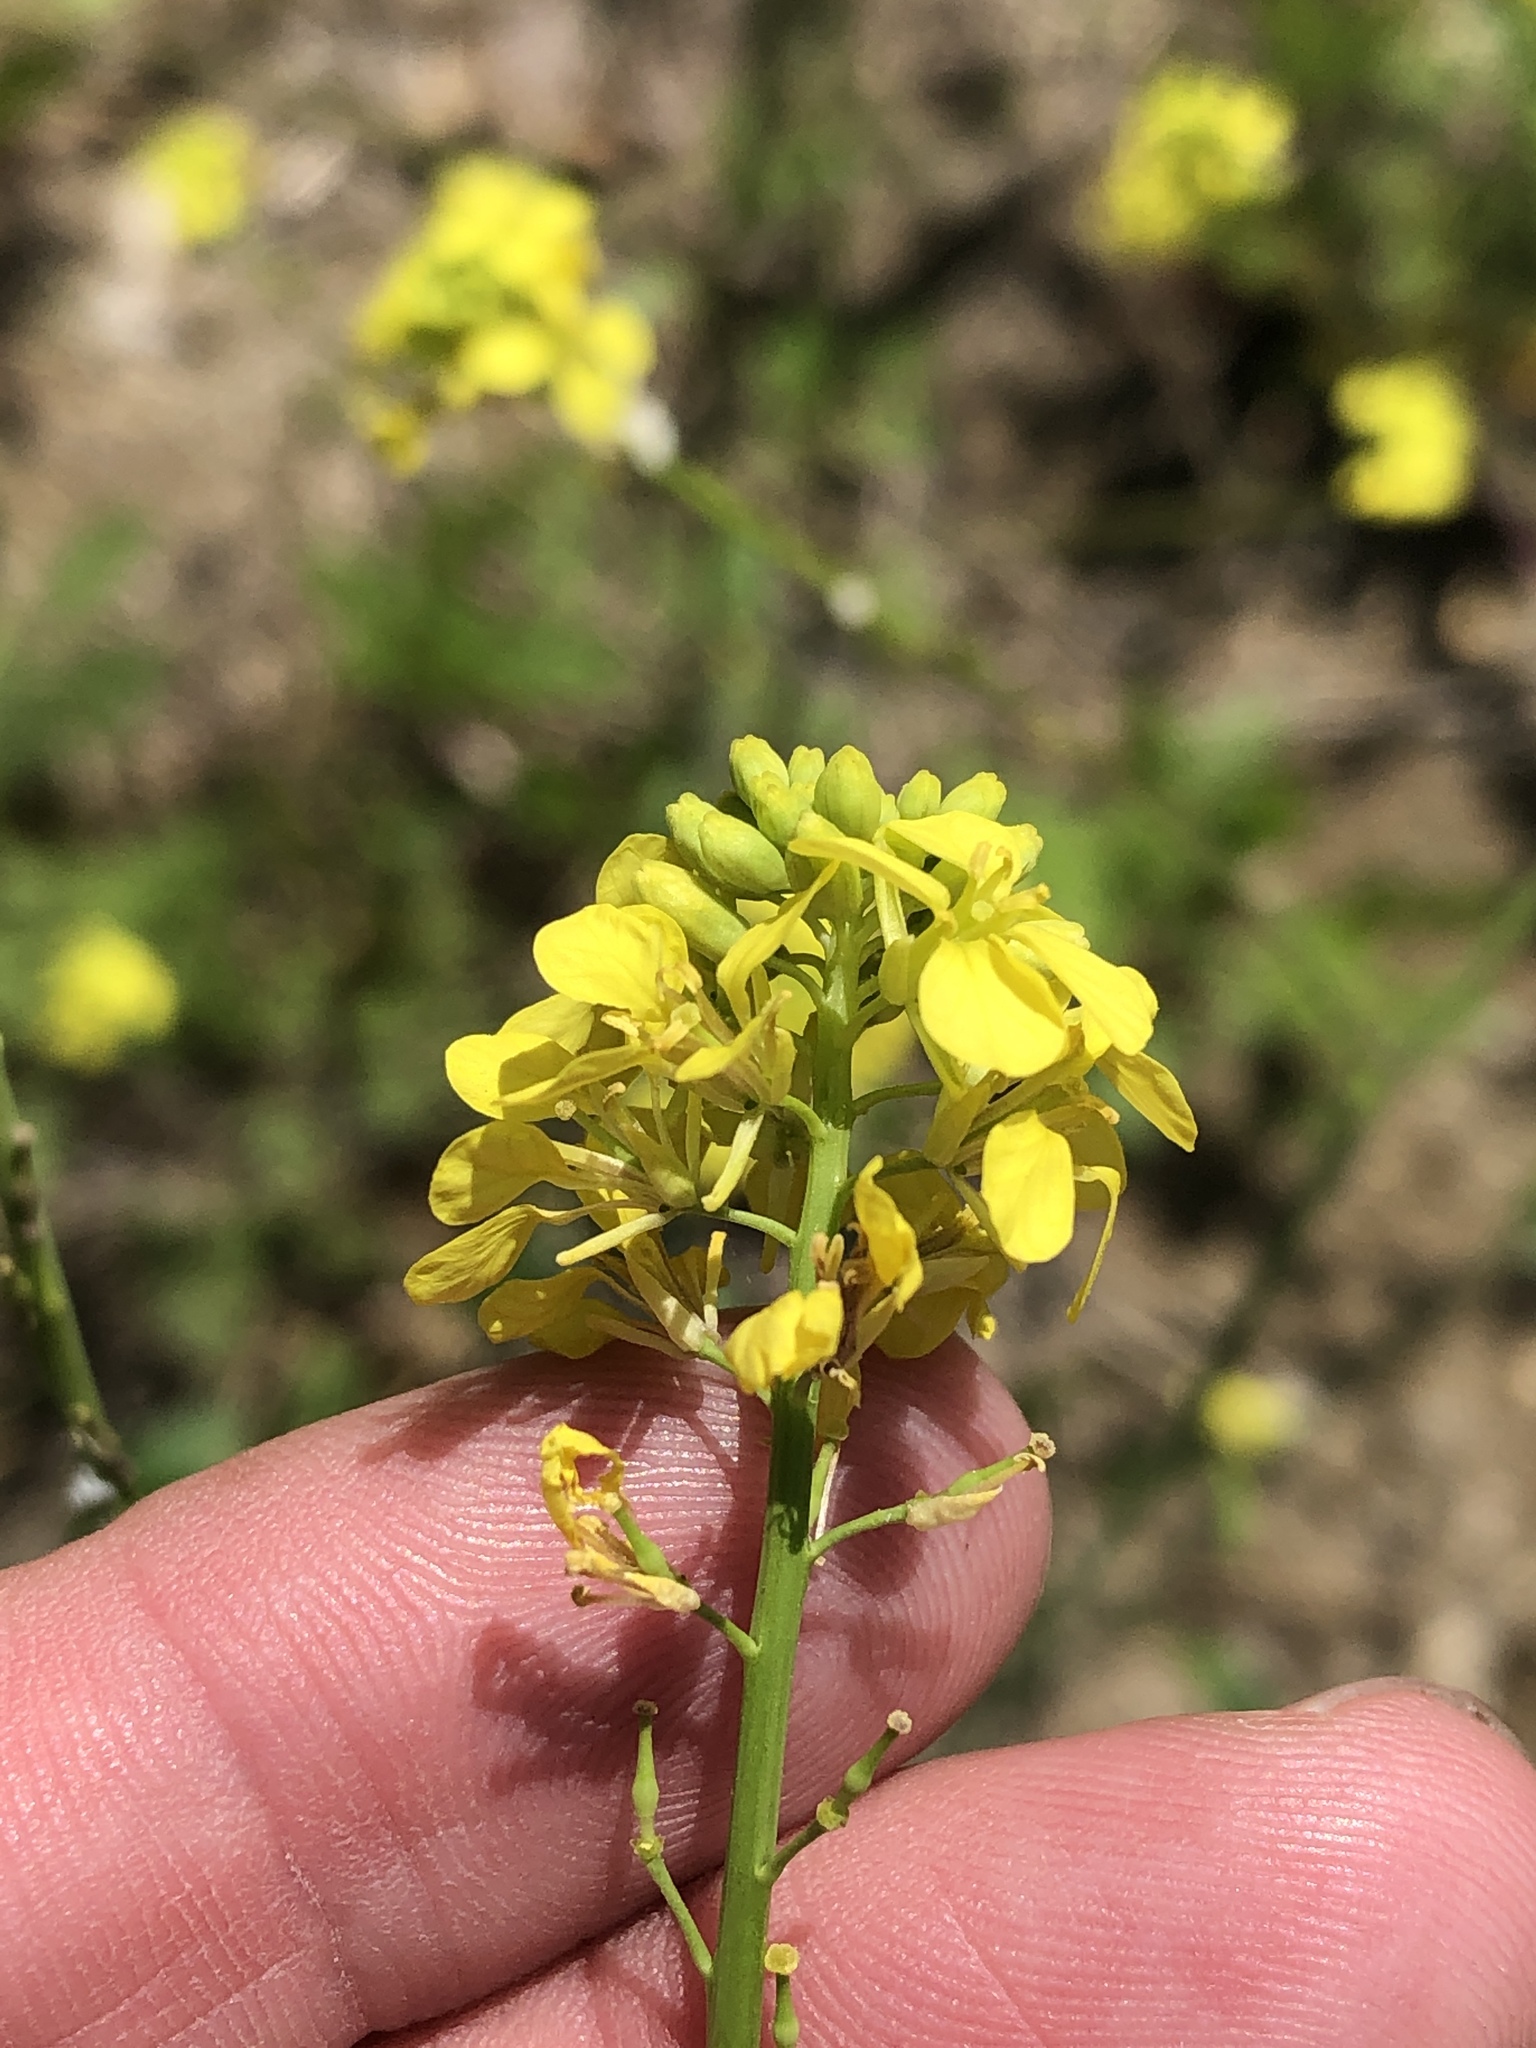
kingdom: Plantae
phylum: Tracheophyta
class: Magnoliopsida
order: Brassicales
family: Brassicaceae
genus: Rapistrum
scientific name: Rapistrum rugosum
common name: Annual bastardcabbage
